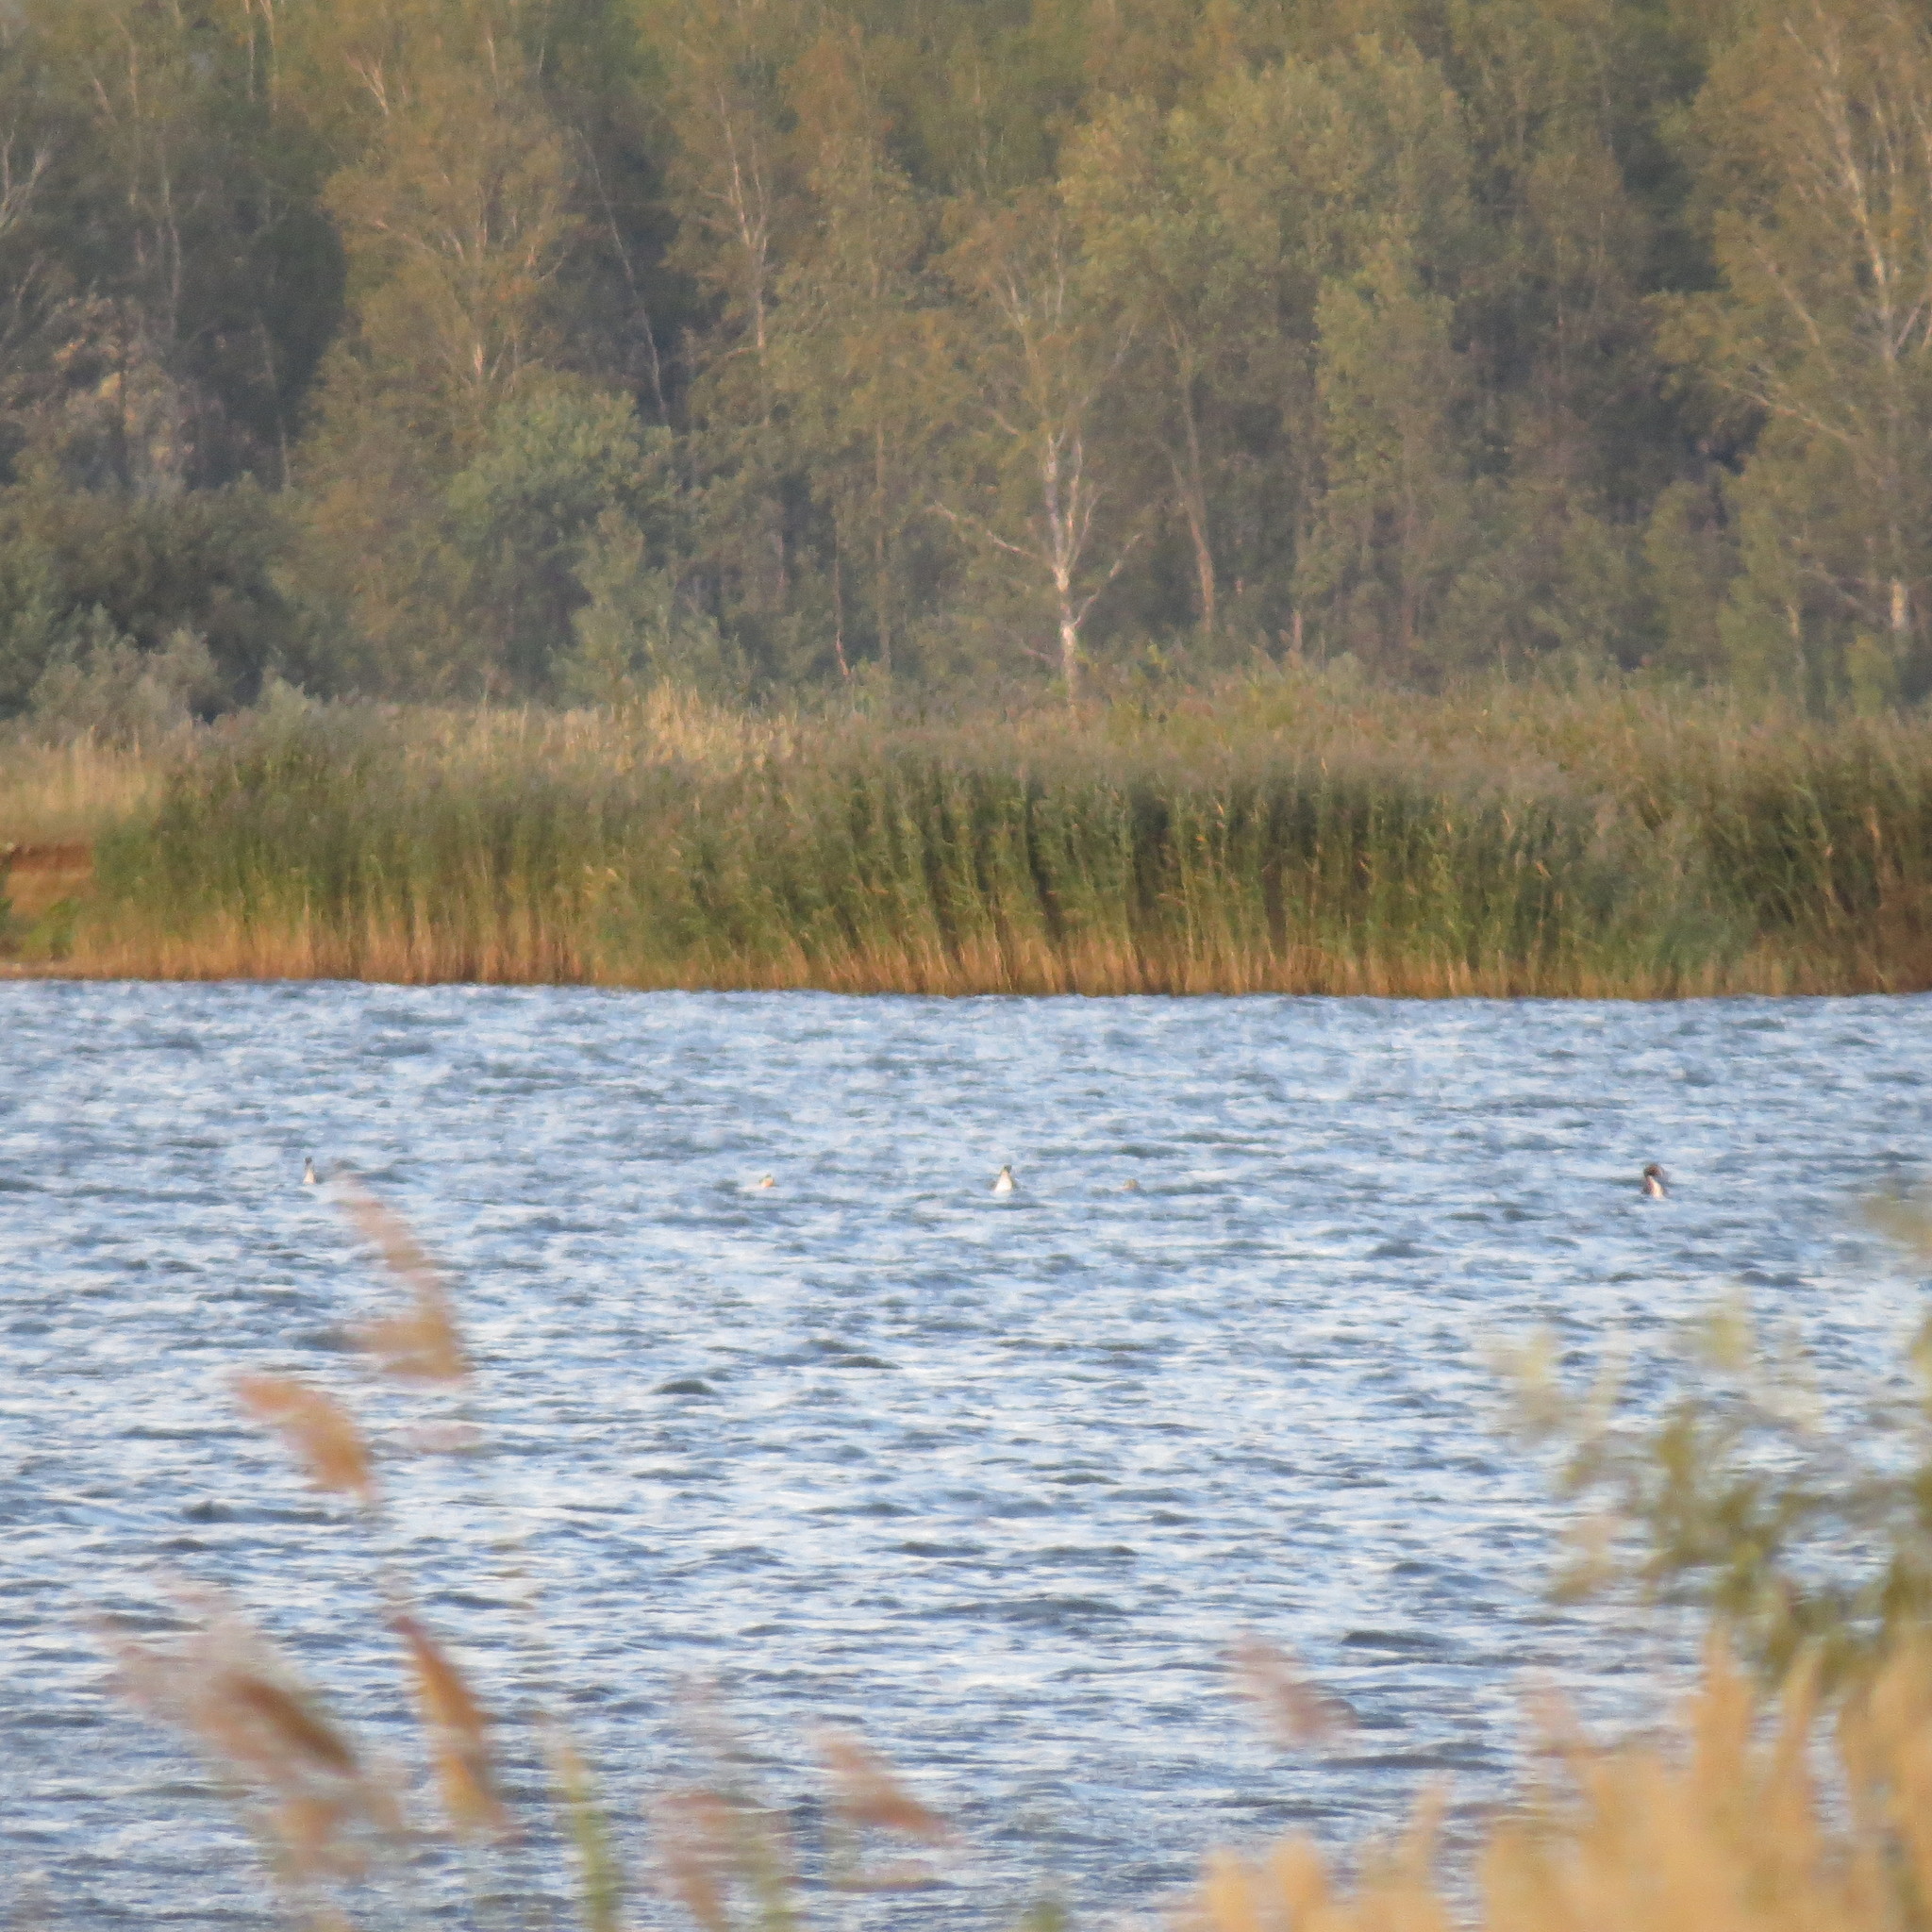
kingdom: Animalia
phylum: Chordata
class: Aves
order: Podicipediformes
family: Podicipedidae
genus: Podiceps
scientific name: Podiceps cristatus
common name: Great crested grebe
